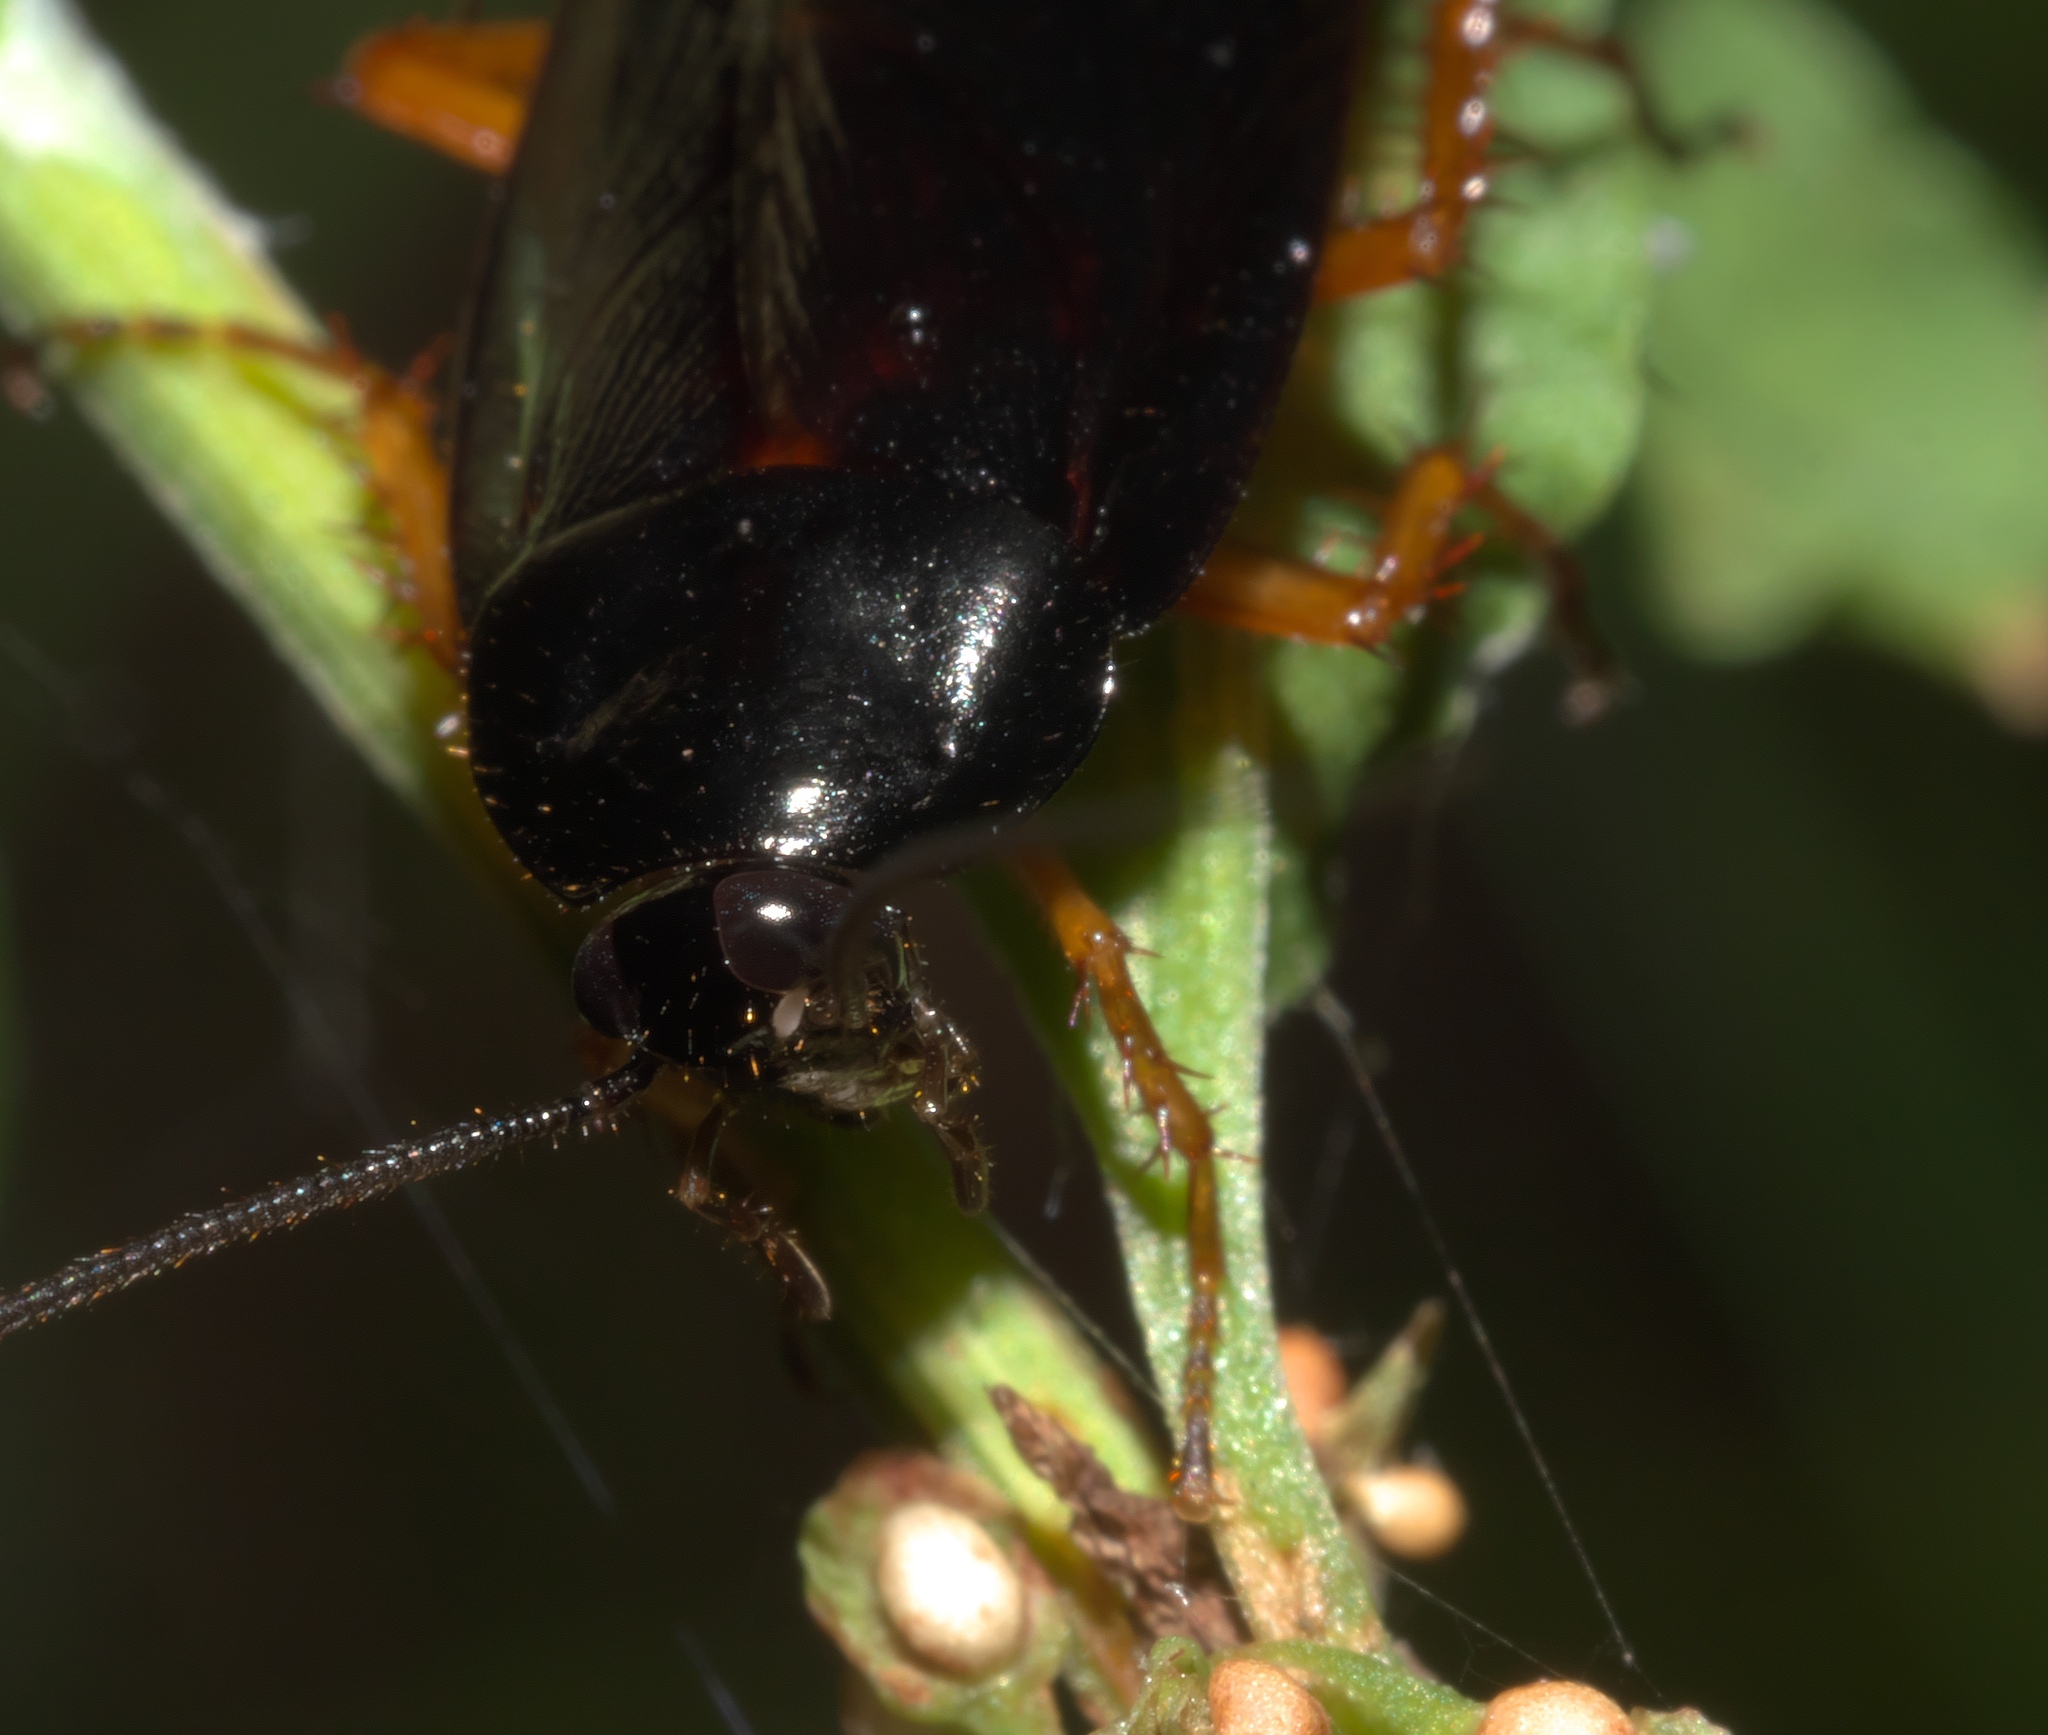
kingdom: Animalia
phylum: Arthropoda
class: Insecta
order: Blattodea
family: Ectobiidae
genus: Ischnoptera
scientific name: Ischnoptera deropeltiformis
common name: Dark wood cockroach
